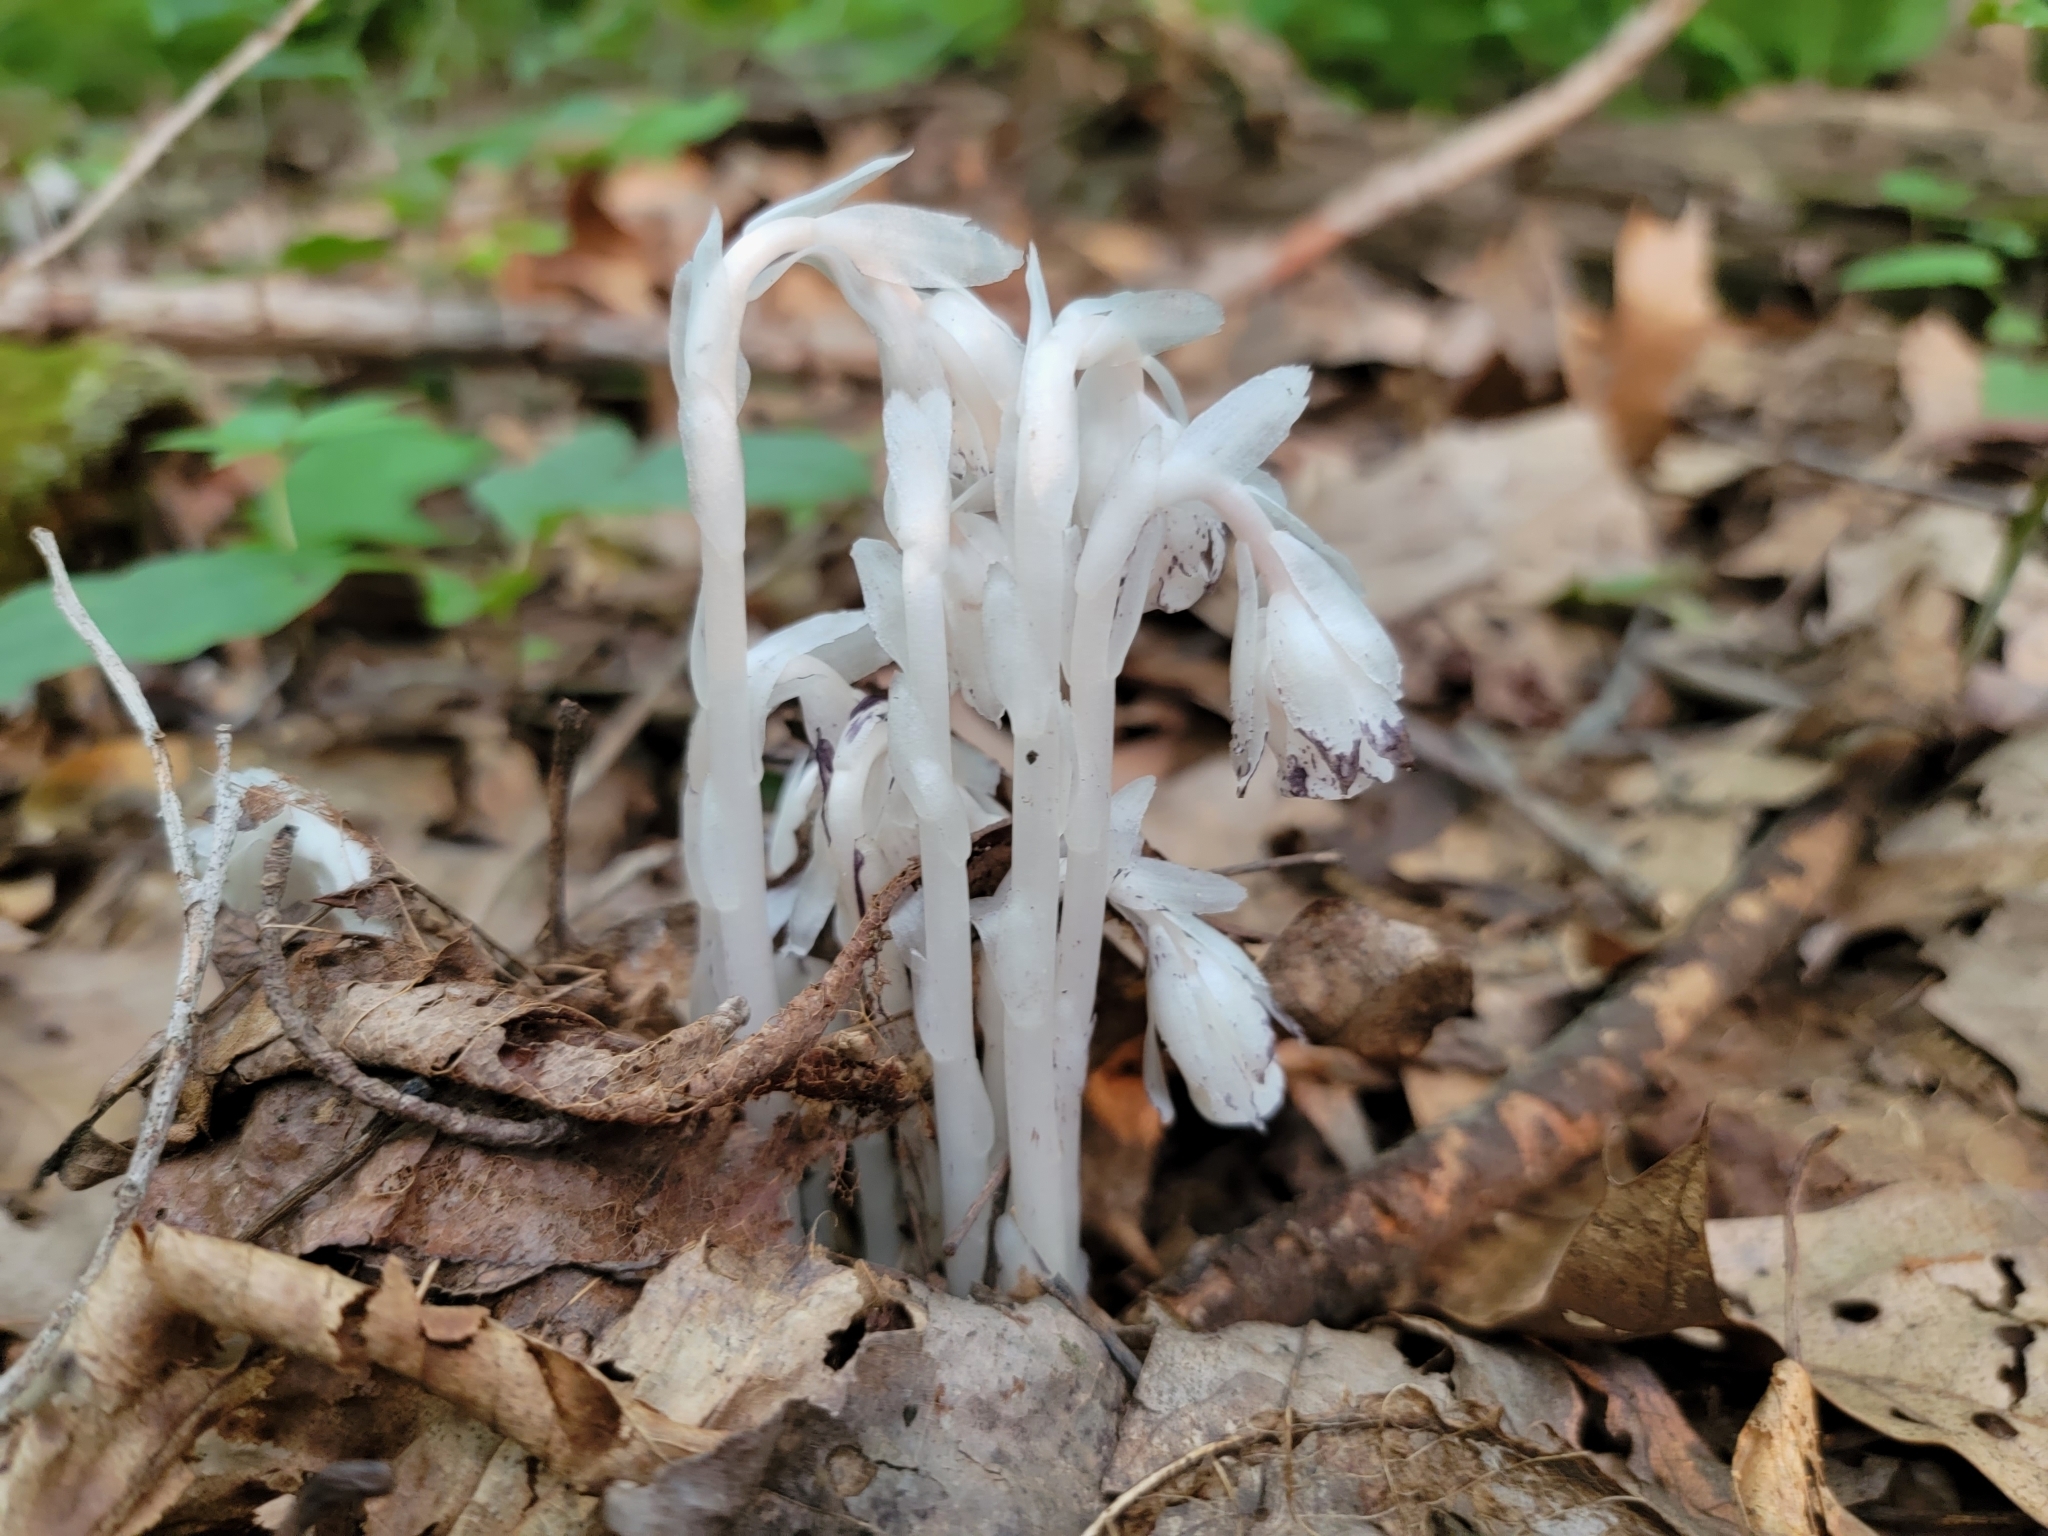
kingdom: Plantae
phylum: Tracheophyta
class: Magnoliopsida
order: Ericales
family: Ericaceae
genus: Monotropa
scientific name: Monotropa uniflora
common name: Convulsion root
